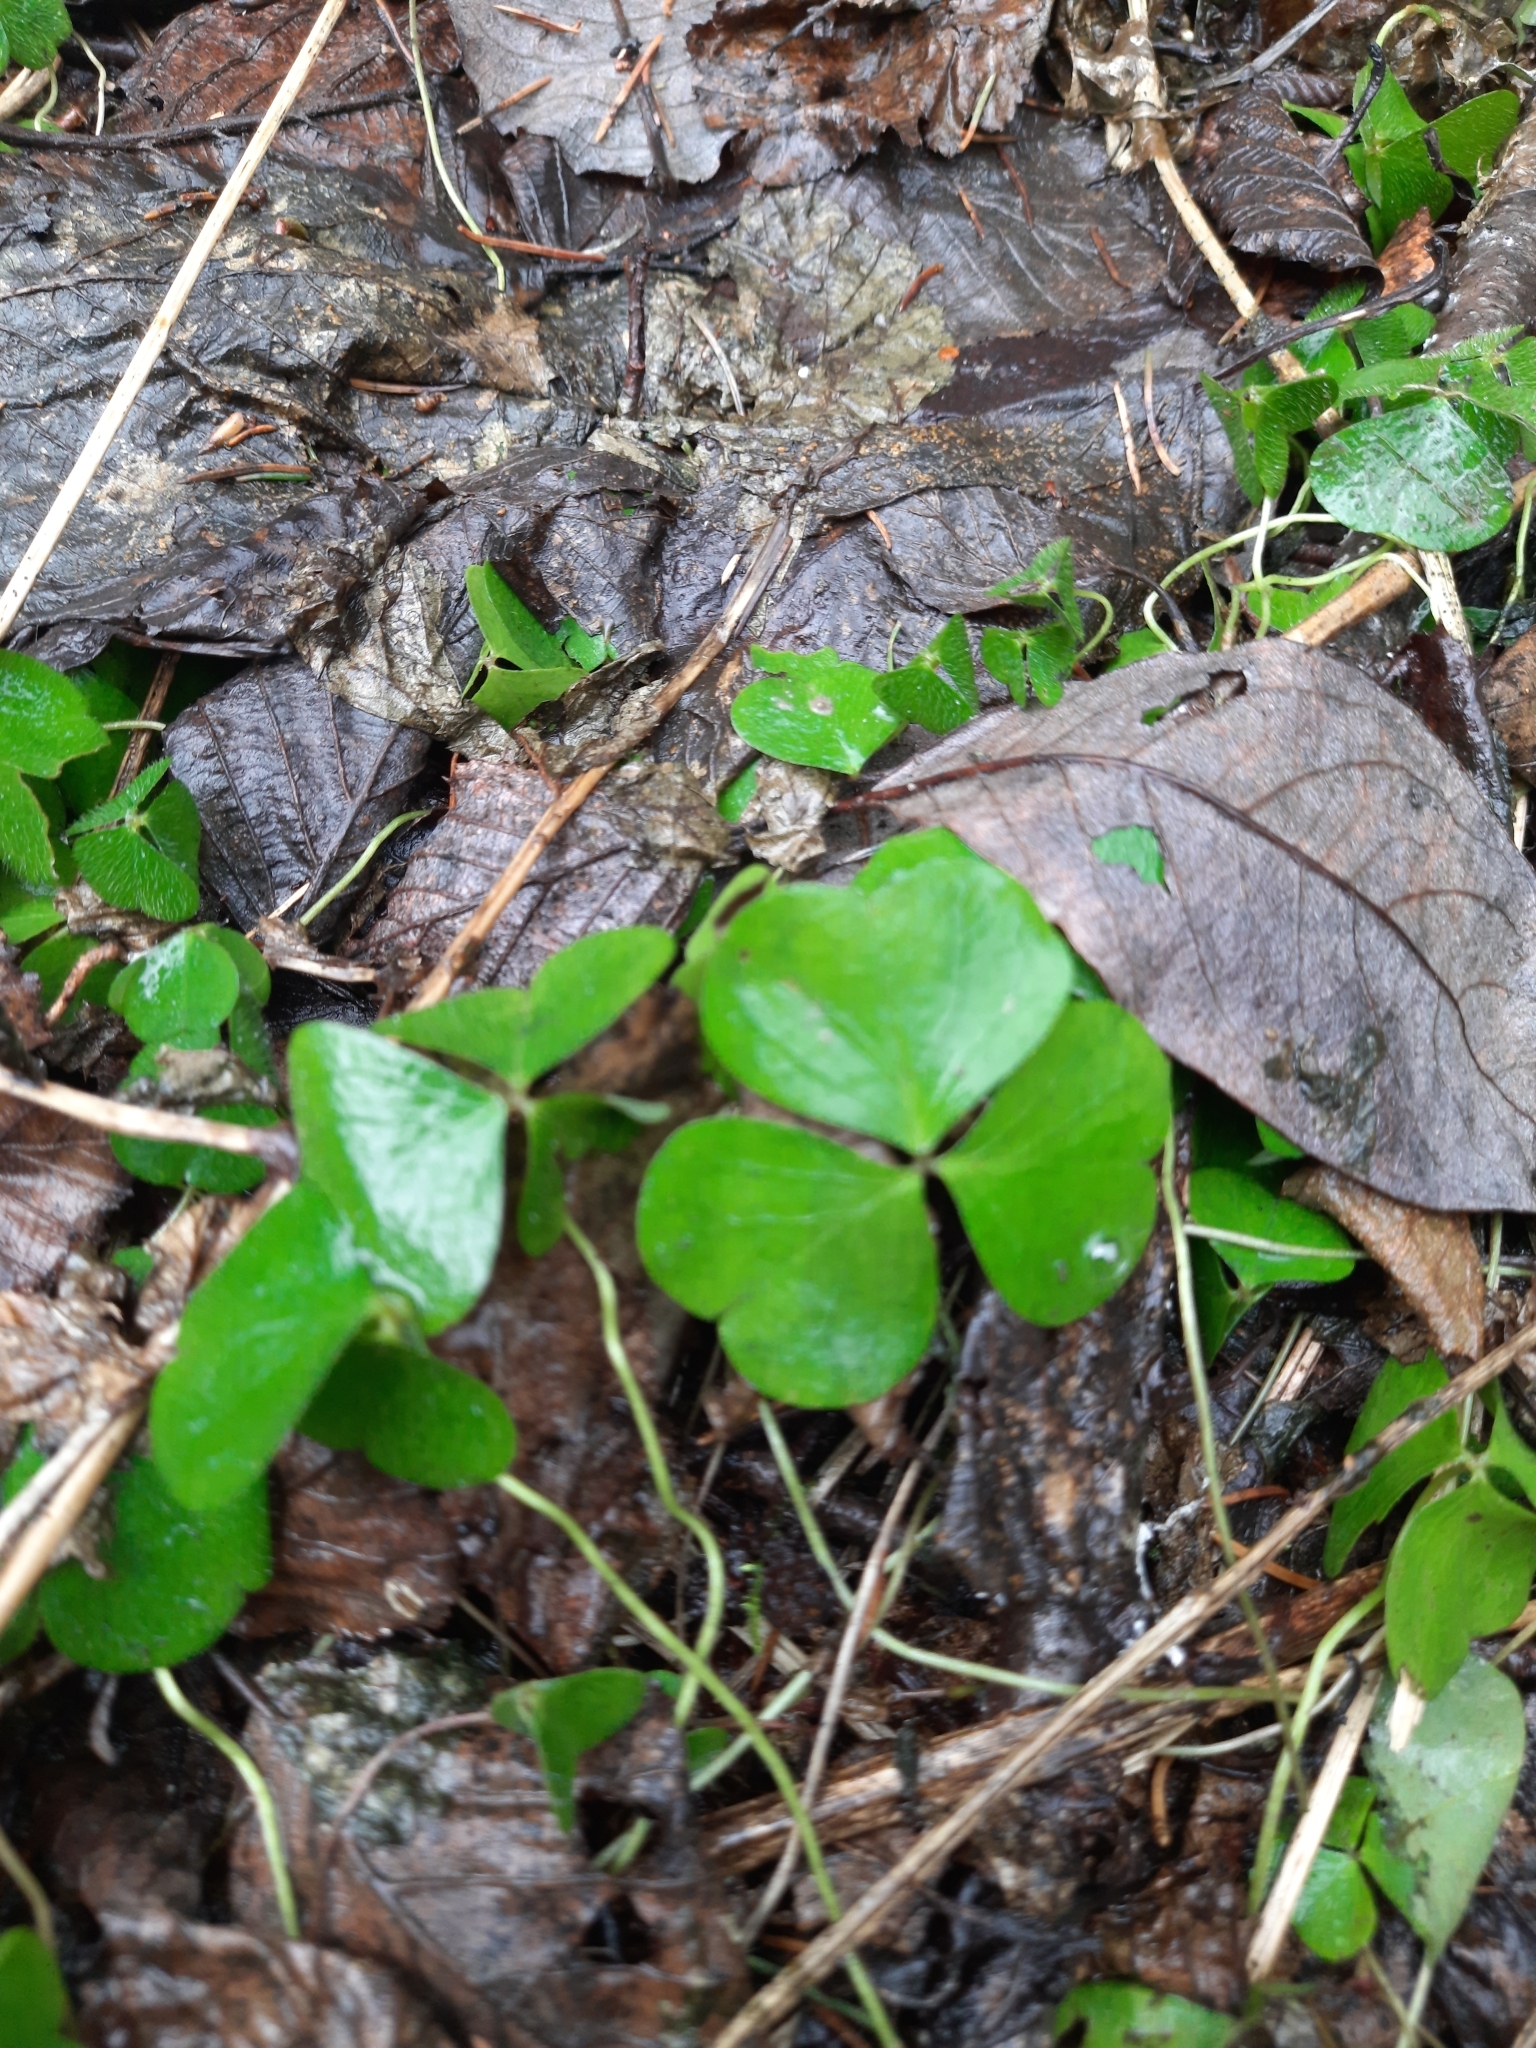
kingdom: Plantae
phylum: Tracheophyta
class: Magnoliopsida
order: Oxalidales
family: Oxalidaceae
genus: Oxalis
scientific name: Oxalis acetosella
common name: Wood-sorrel
